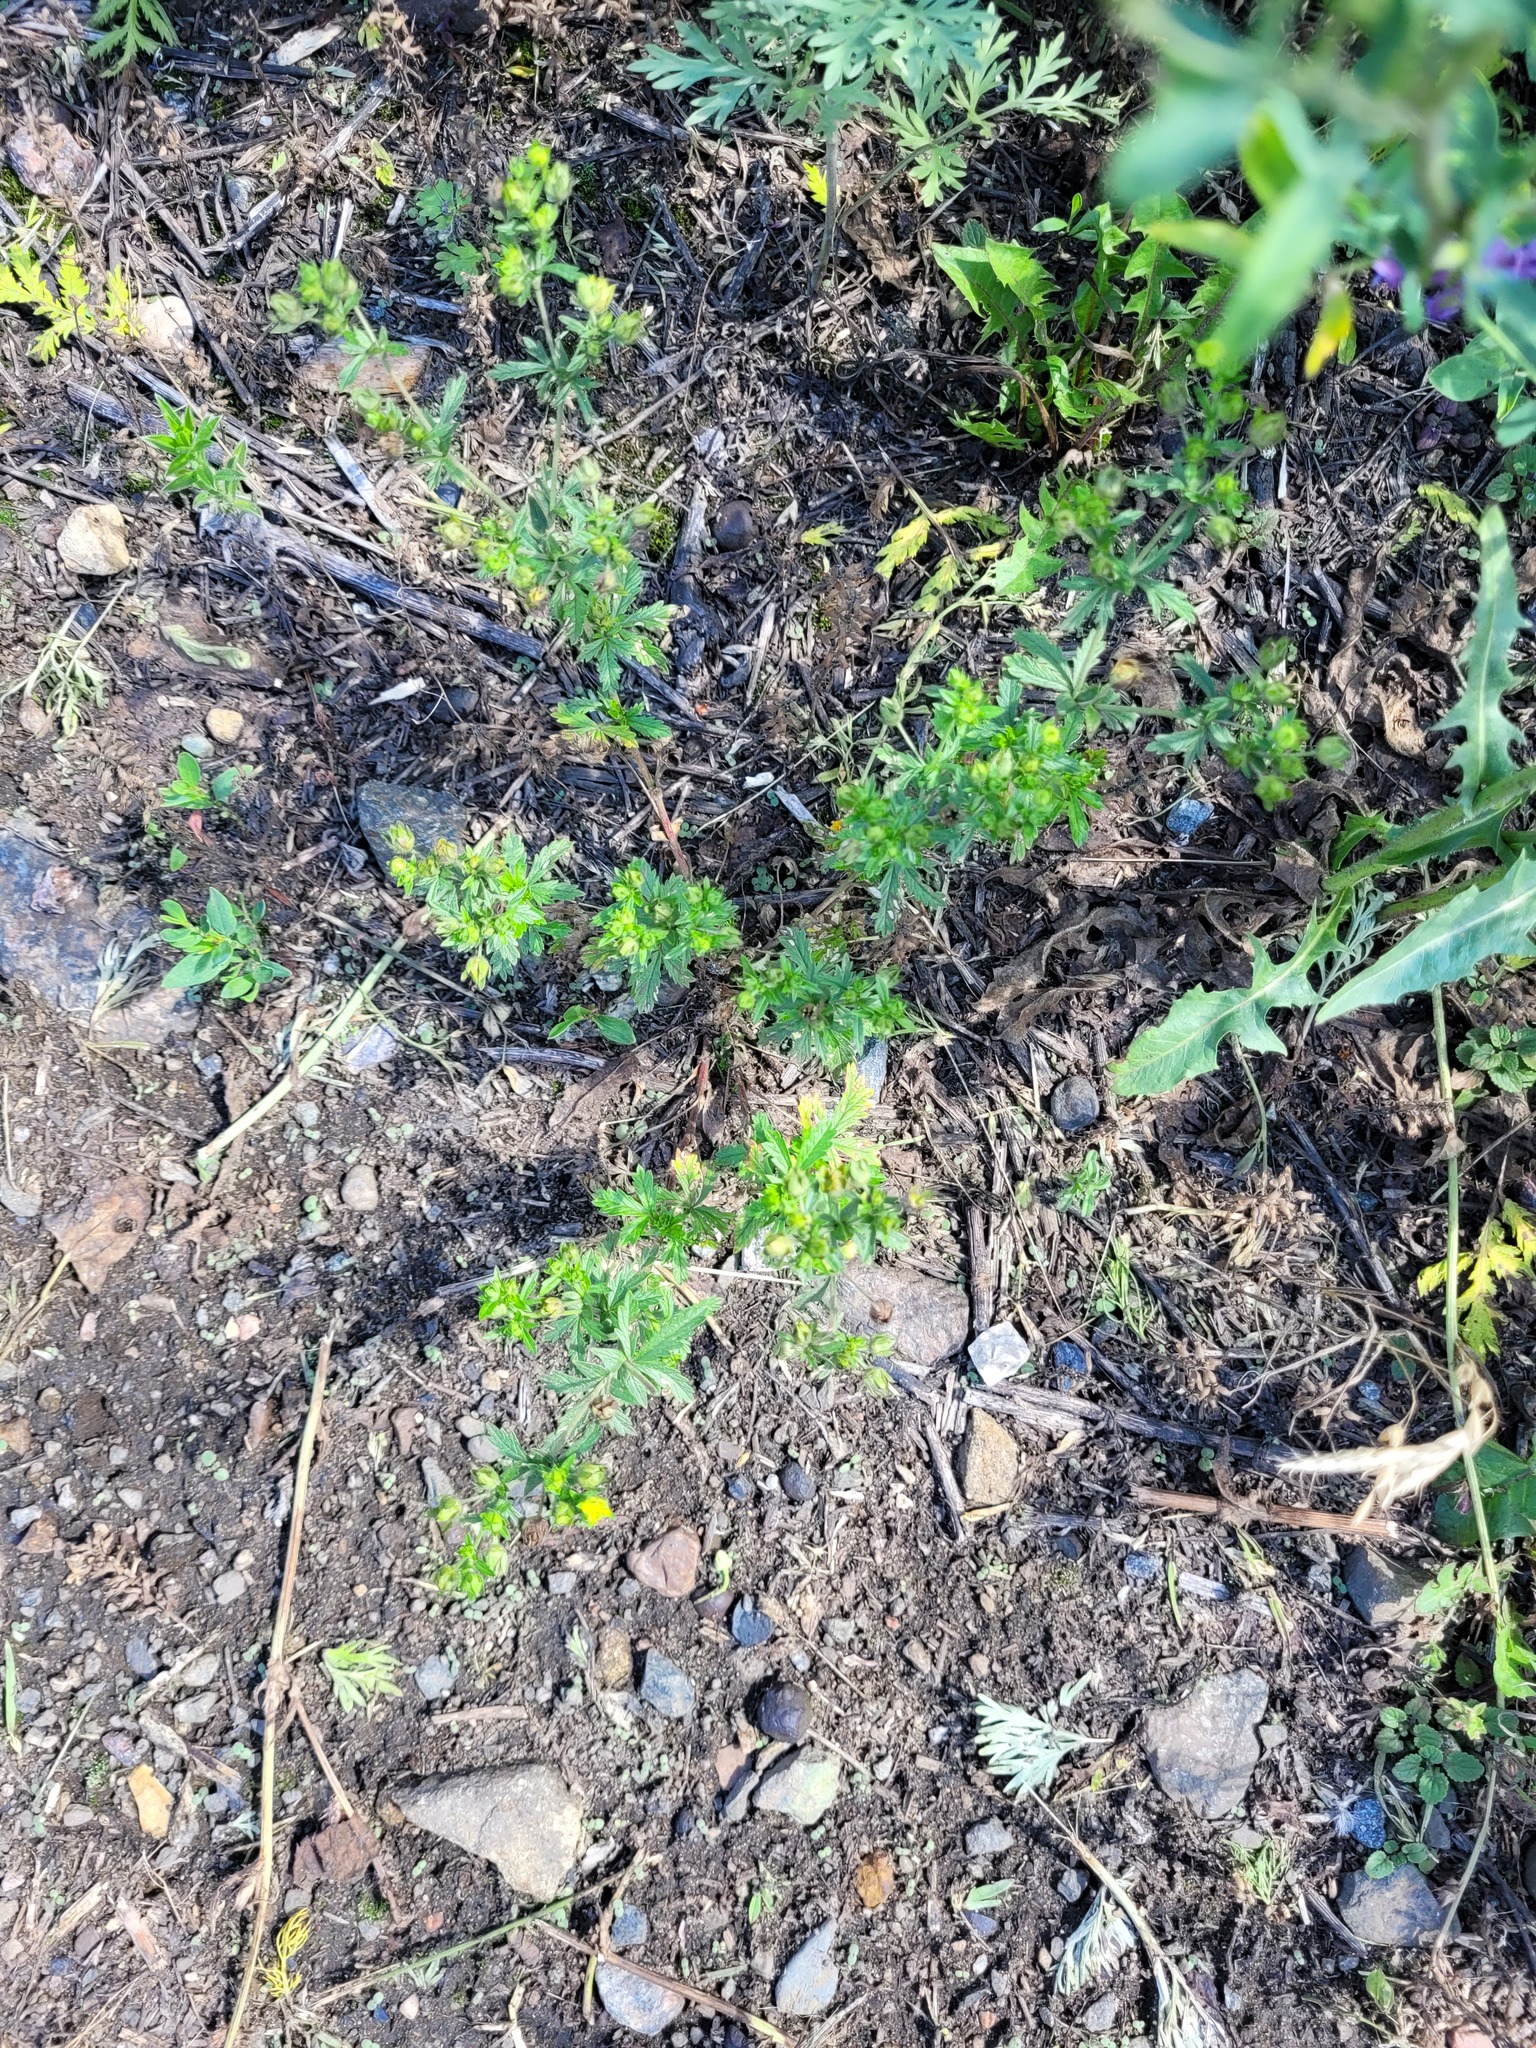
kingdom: Plantae
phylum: Tracheophyta
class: Magnoliopsida
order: Rosales
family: Rosaceae
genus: Potentilla
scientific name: Potentilla intermedia
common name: Downy cinquefoil
